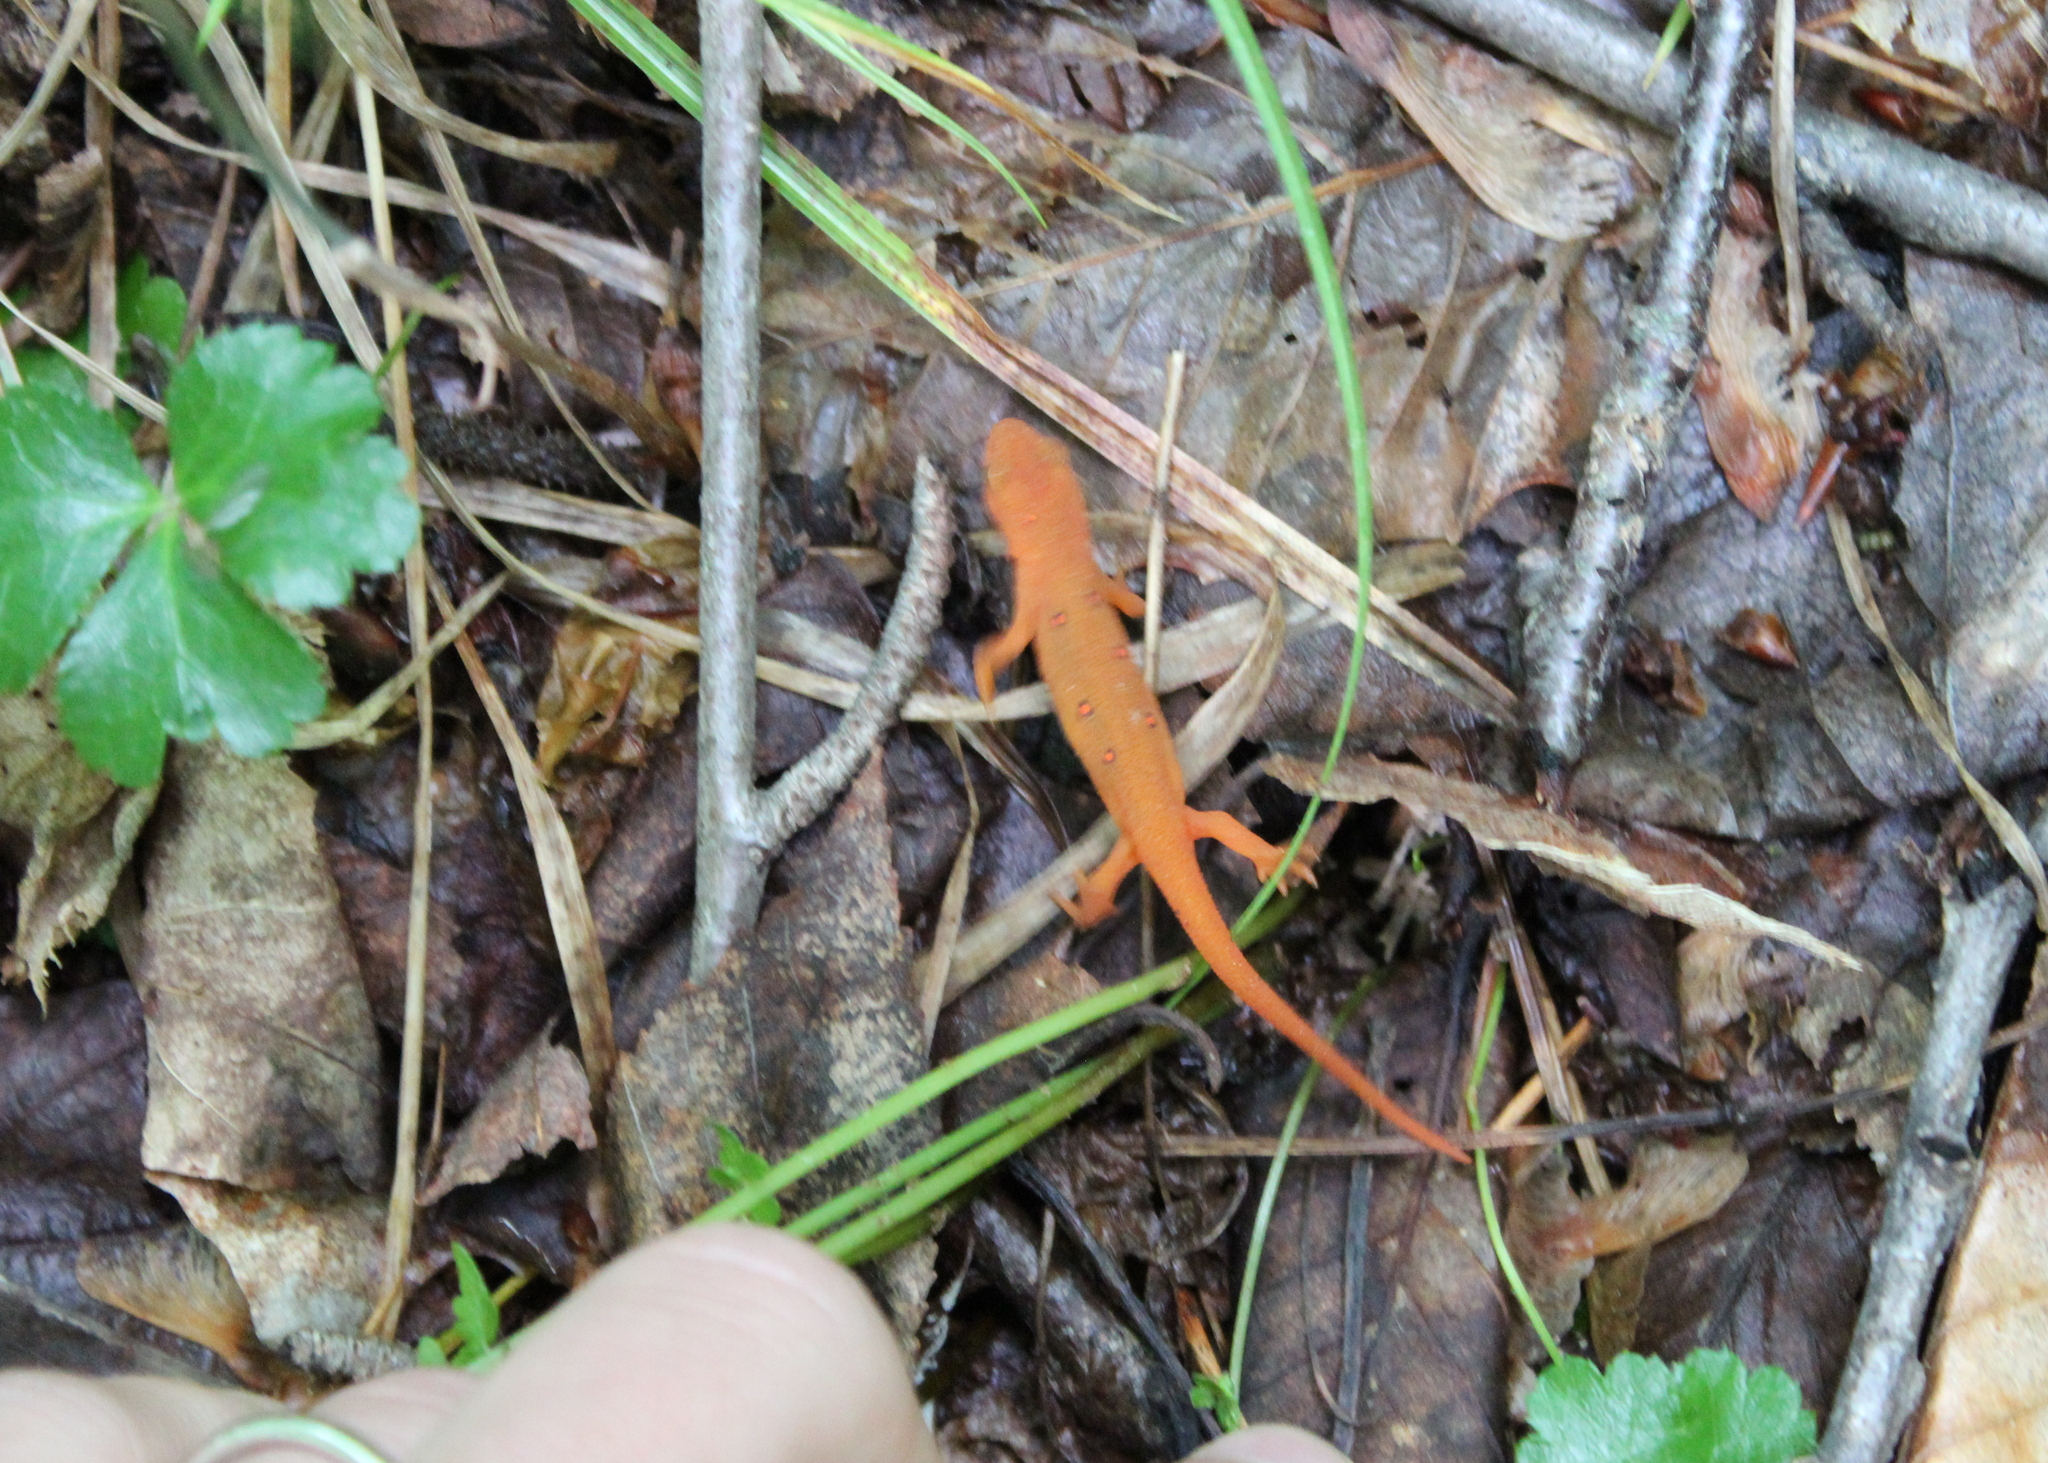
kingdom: Animalia
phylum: Chordata
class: Amphibia
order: Caudata
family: Salamandridae
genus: Notophthalmus
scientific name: Notophthalmus viridescens
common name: Eastern newt
